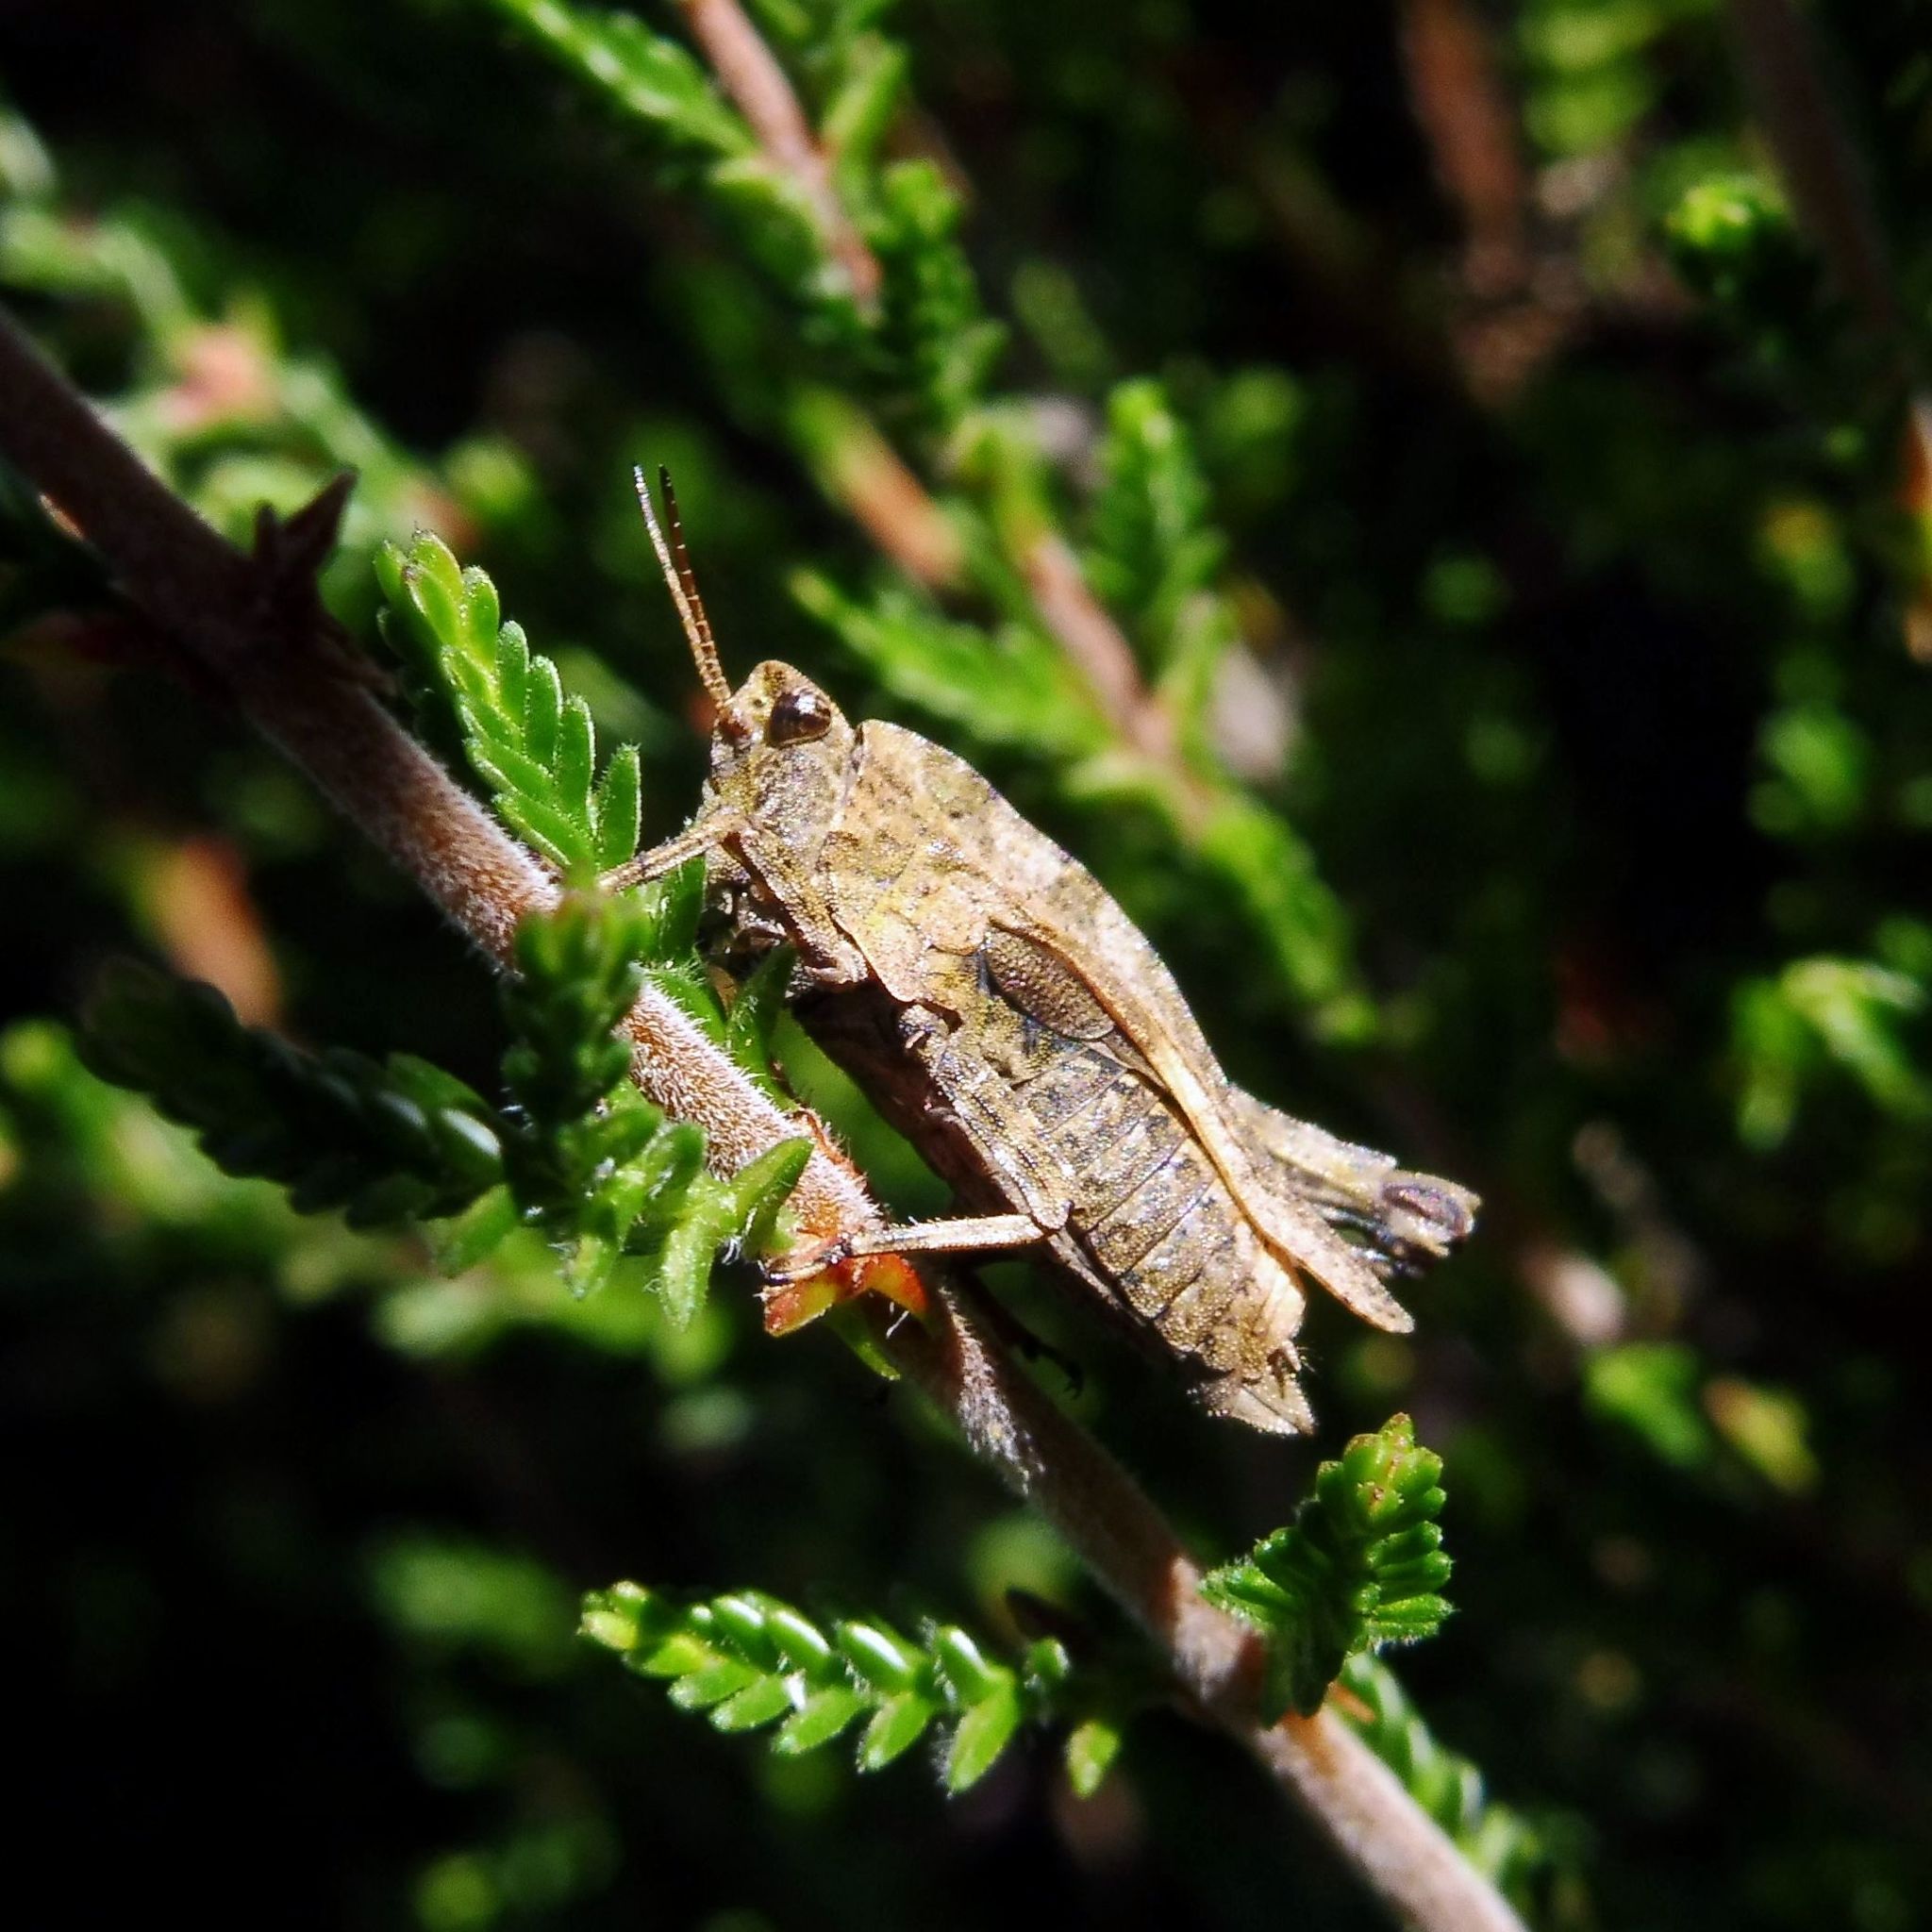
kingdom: Animalia
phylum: Arthropoda
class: Insecta
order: Orthoptera
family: Tetrigidae
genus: Tetrix
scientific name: Tetrix undulata
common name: Common groundhopper
